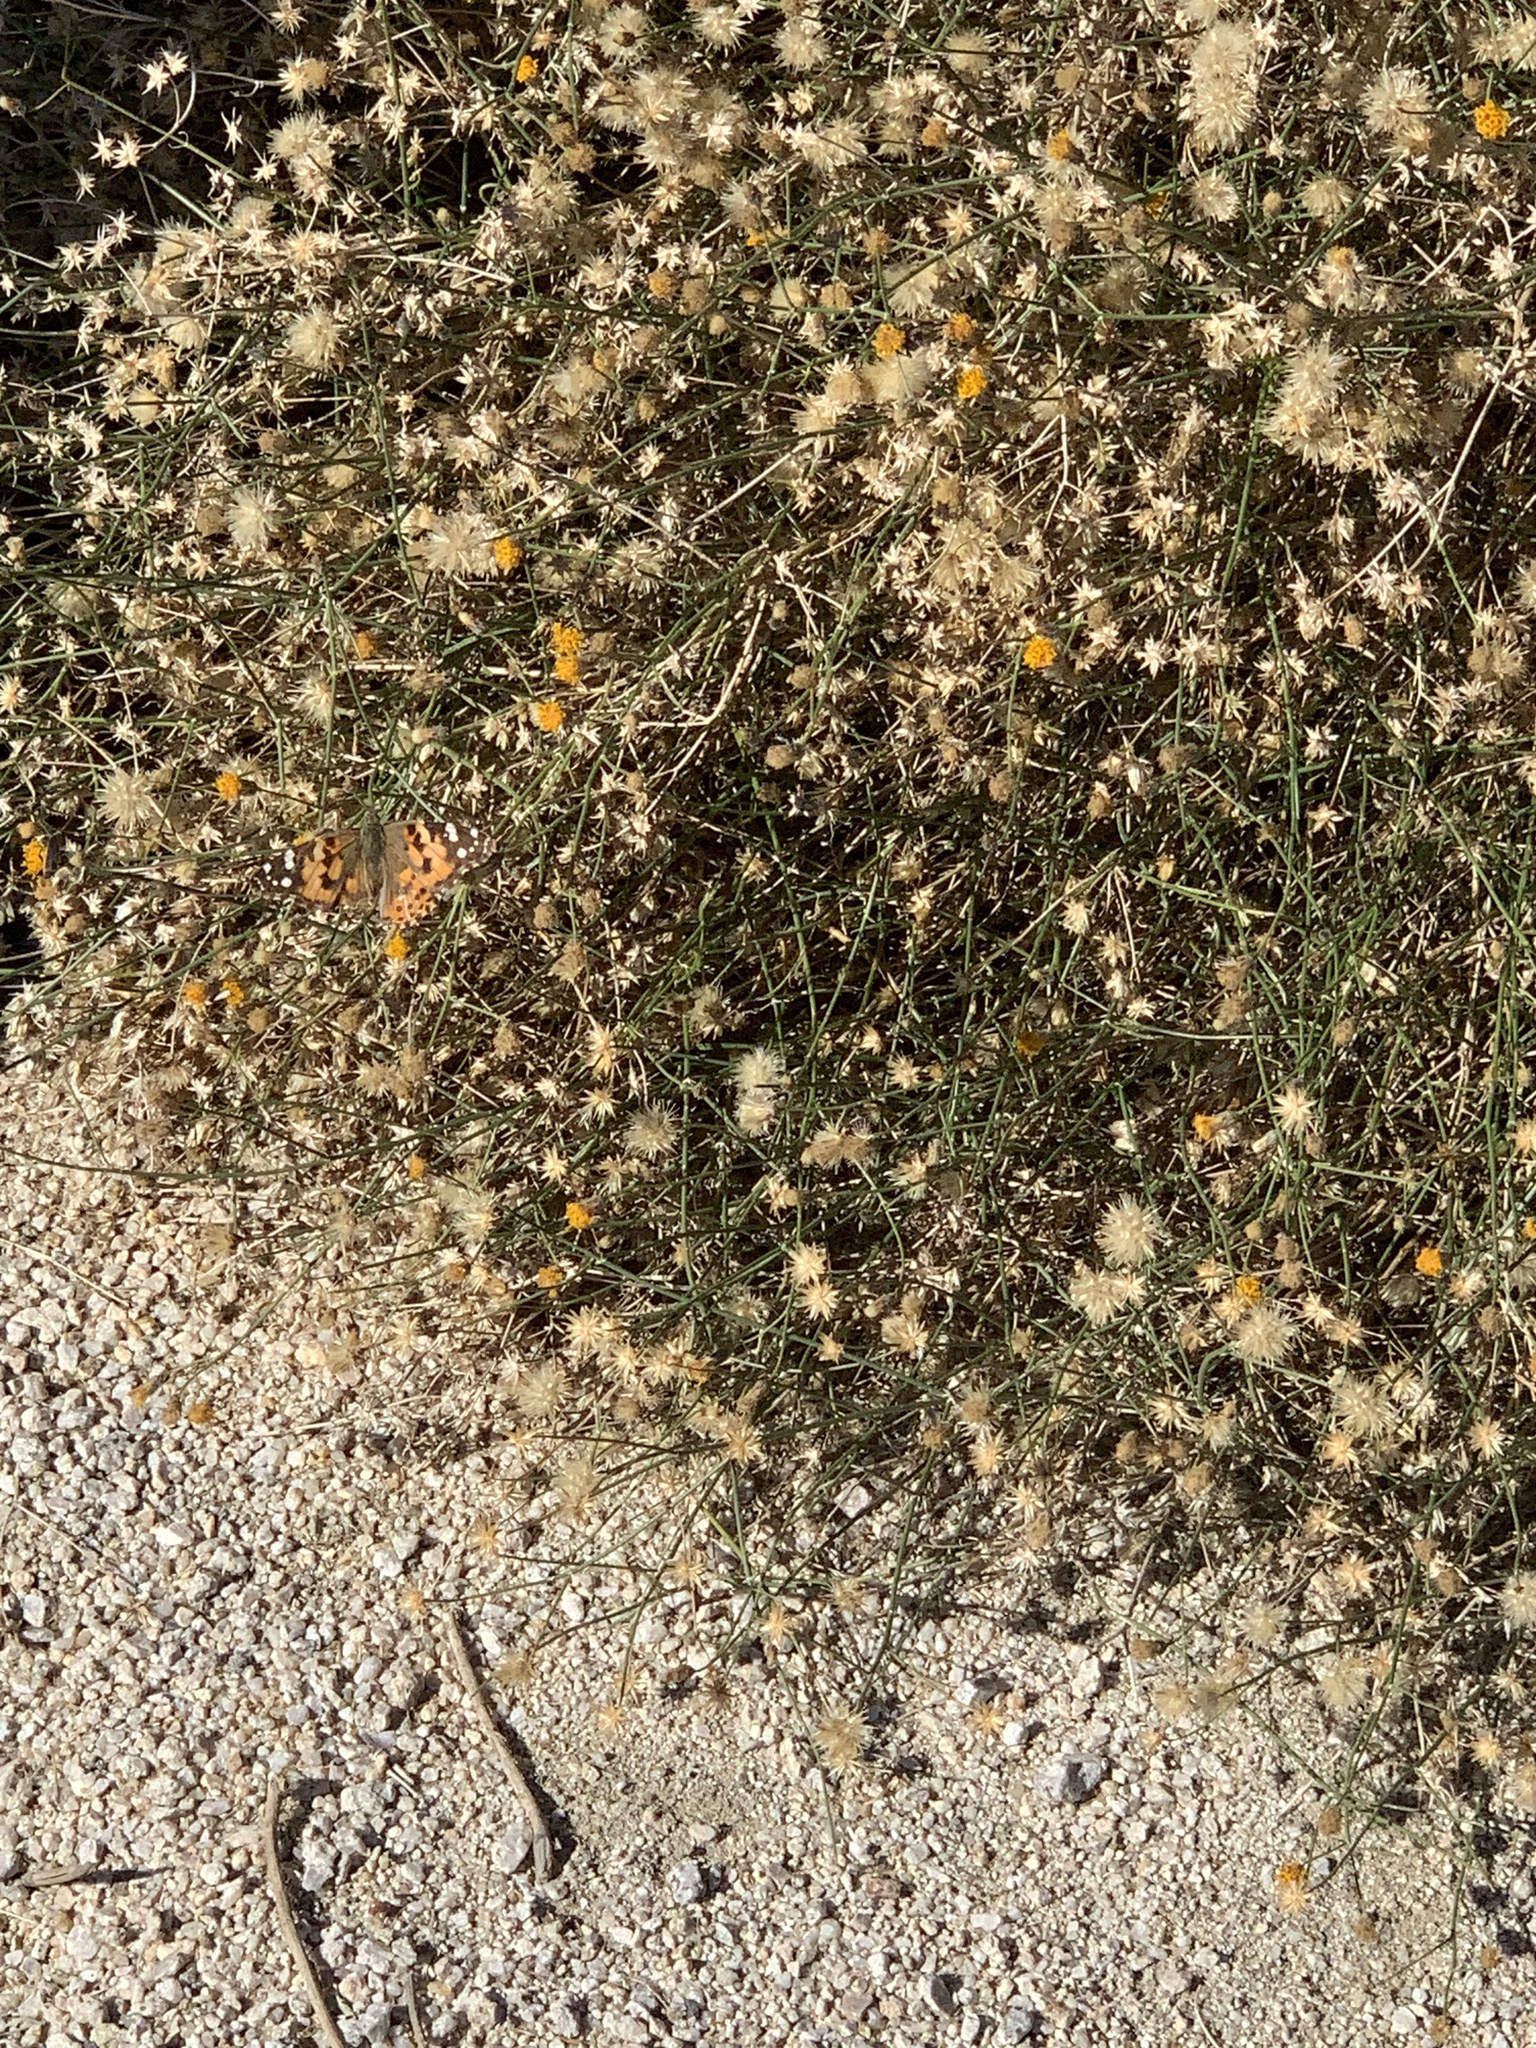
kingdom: Animalia
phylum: Arthropoda
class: Insecta
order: Lepidoptera
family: Nymphalidae
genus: Vanessa
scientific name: Vanessa cardui
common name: Painted lady
